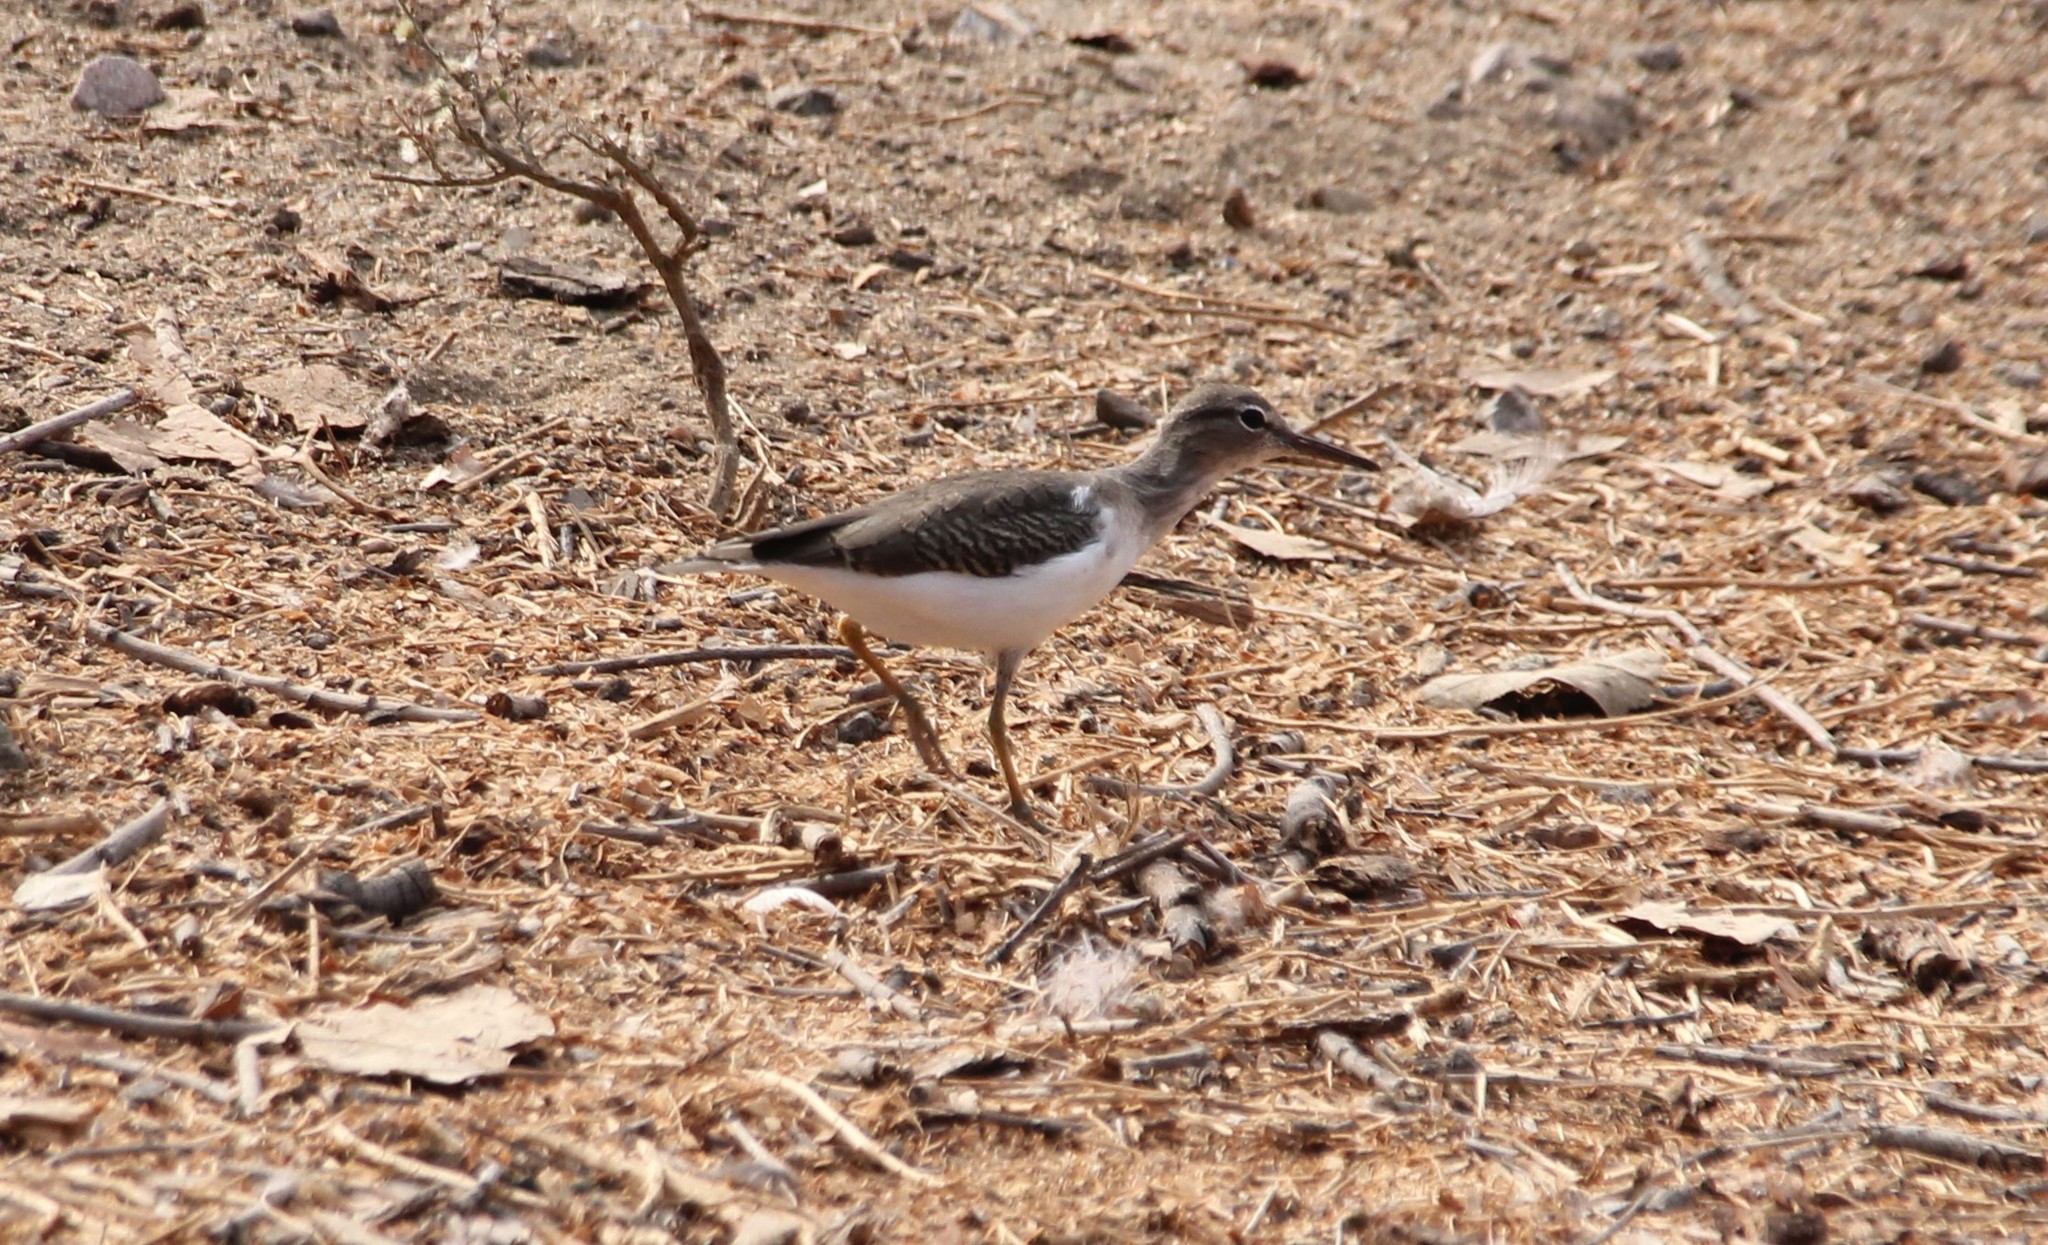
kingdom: Animalia
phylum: Chordata
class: Aves
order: Charadriiformes
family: Scolopacidae
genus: Actitis
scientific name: Actitis macularius
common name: Spotted sandpiper
